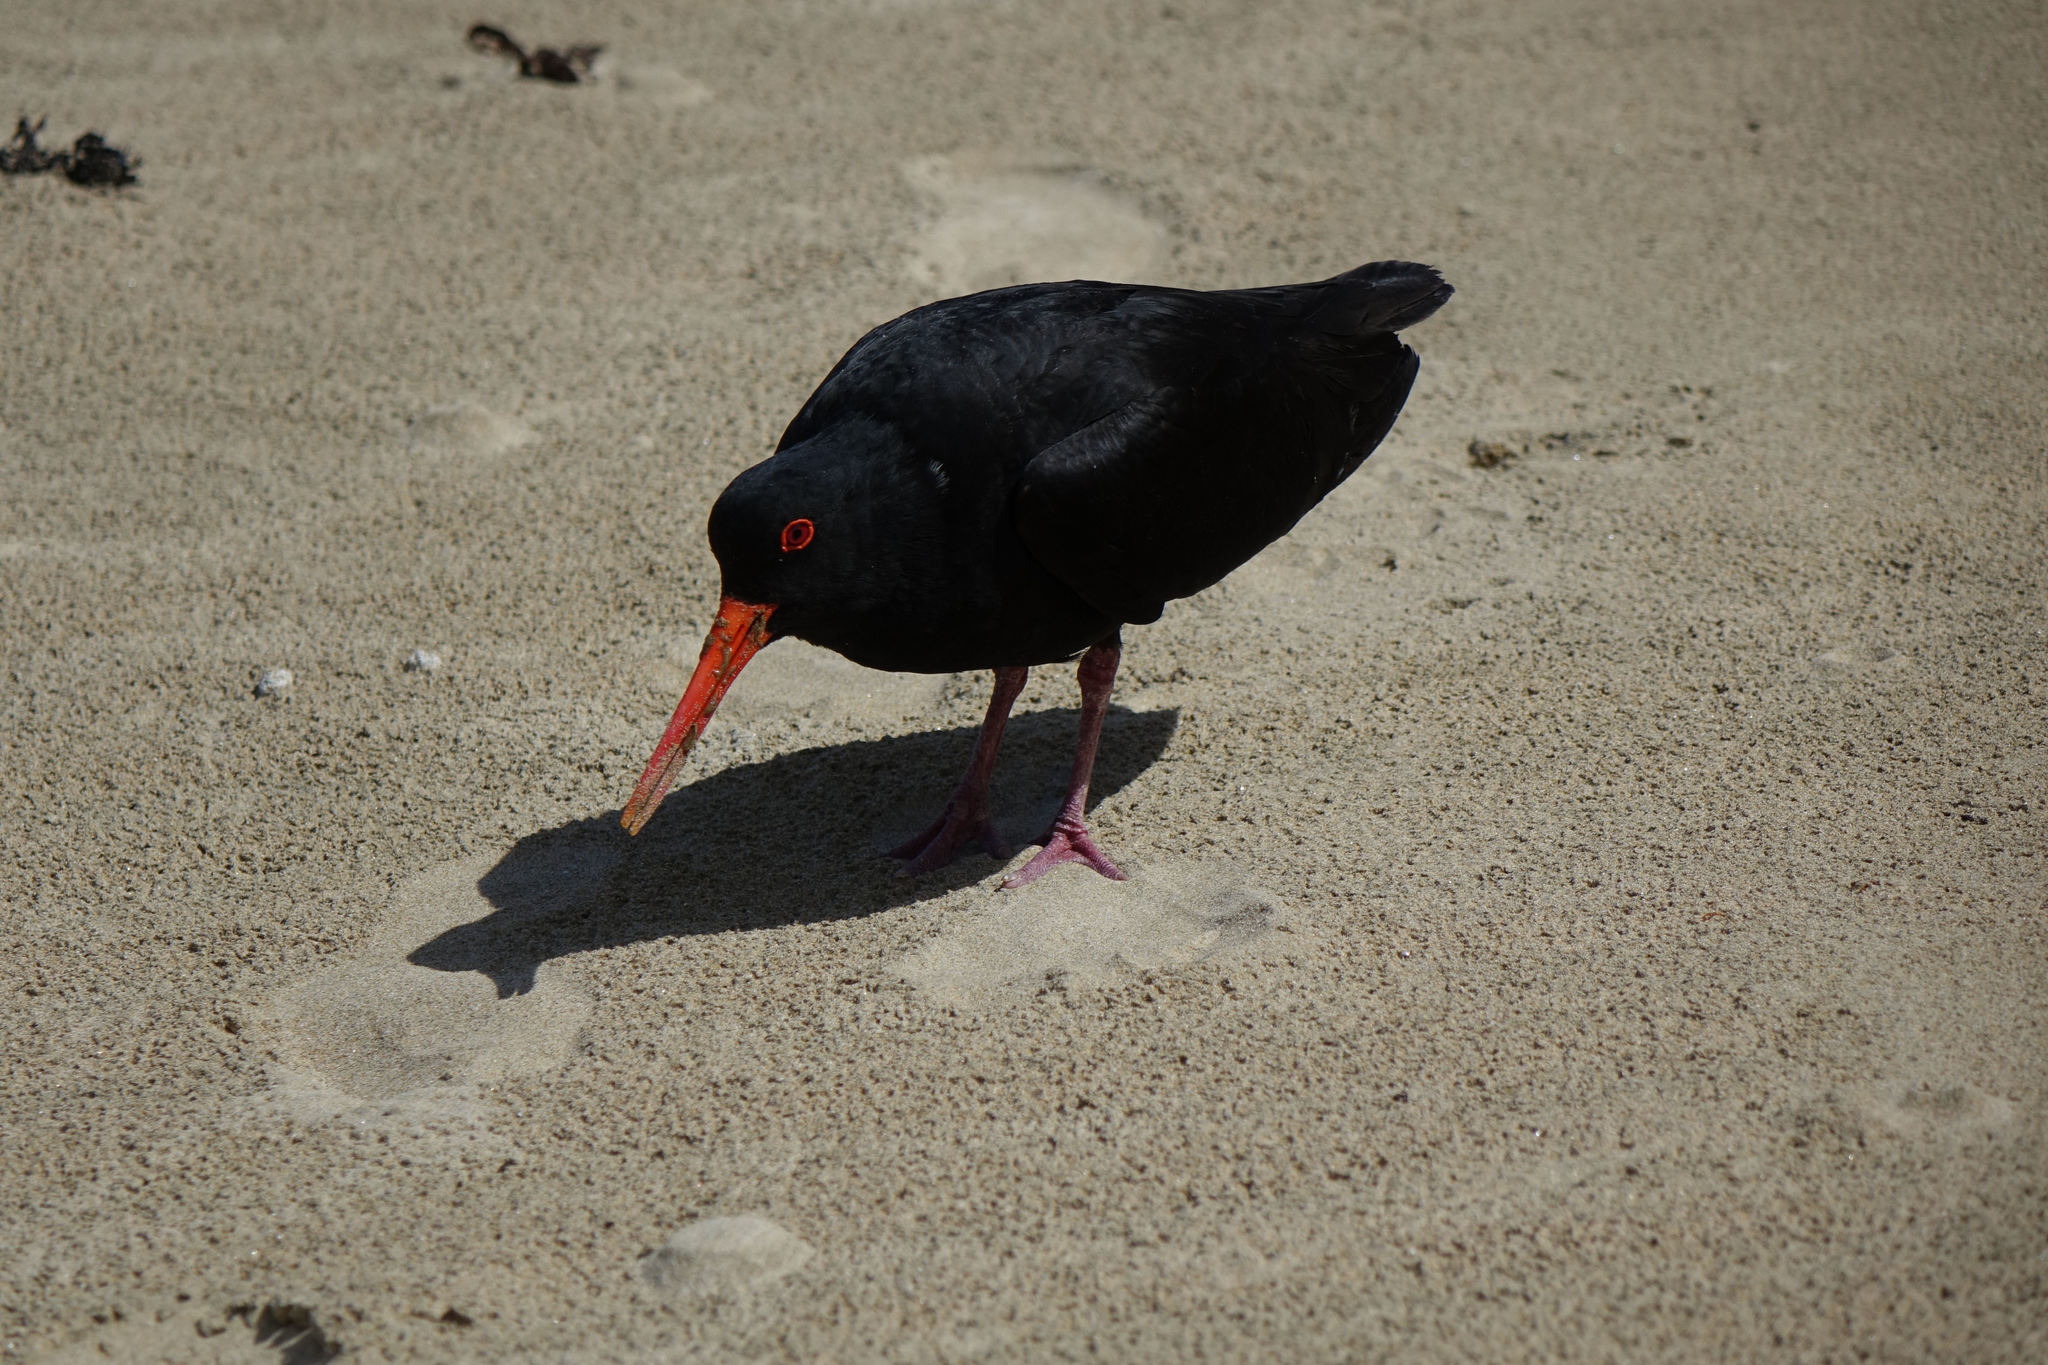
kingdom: Animalia
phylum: Chordata
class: Aves
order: Charadriiformes
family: Haematopodidae
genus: Haematopus
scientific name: Haematopus unicolor
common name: Variable oystercatcher
